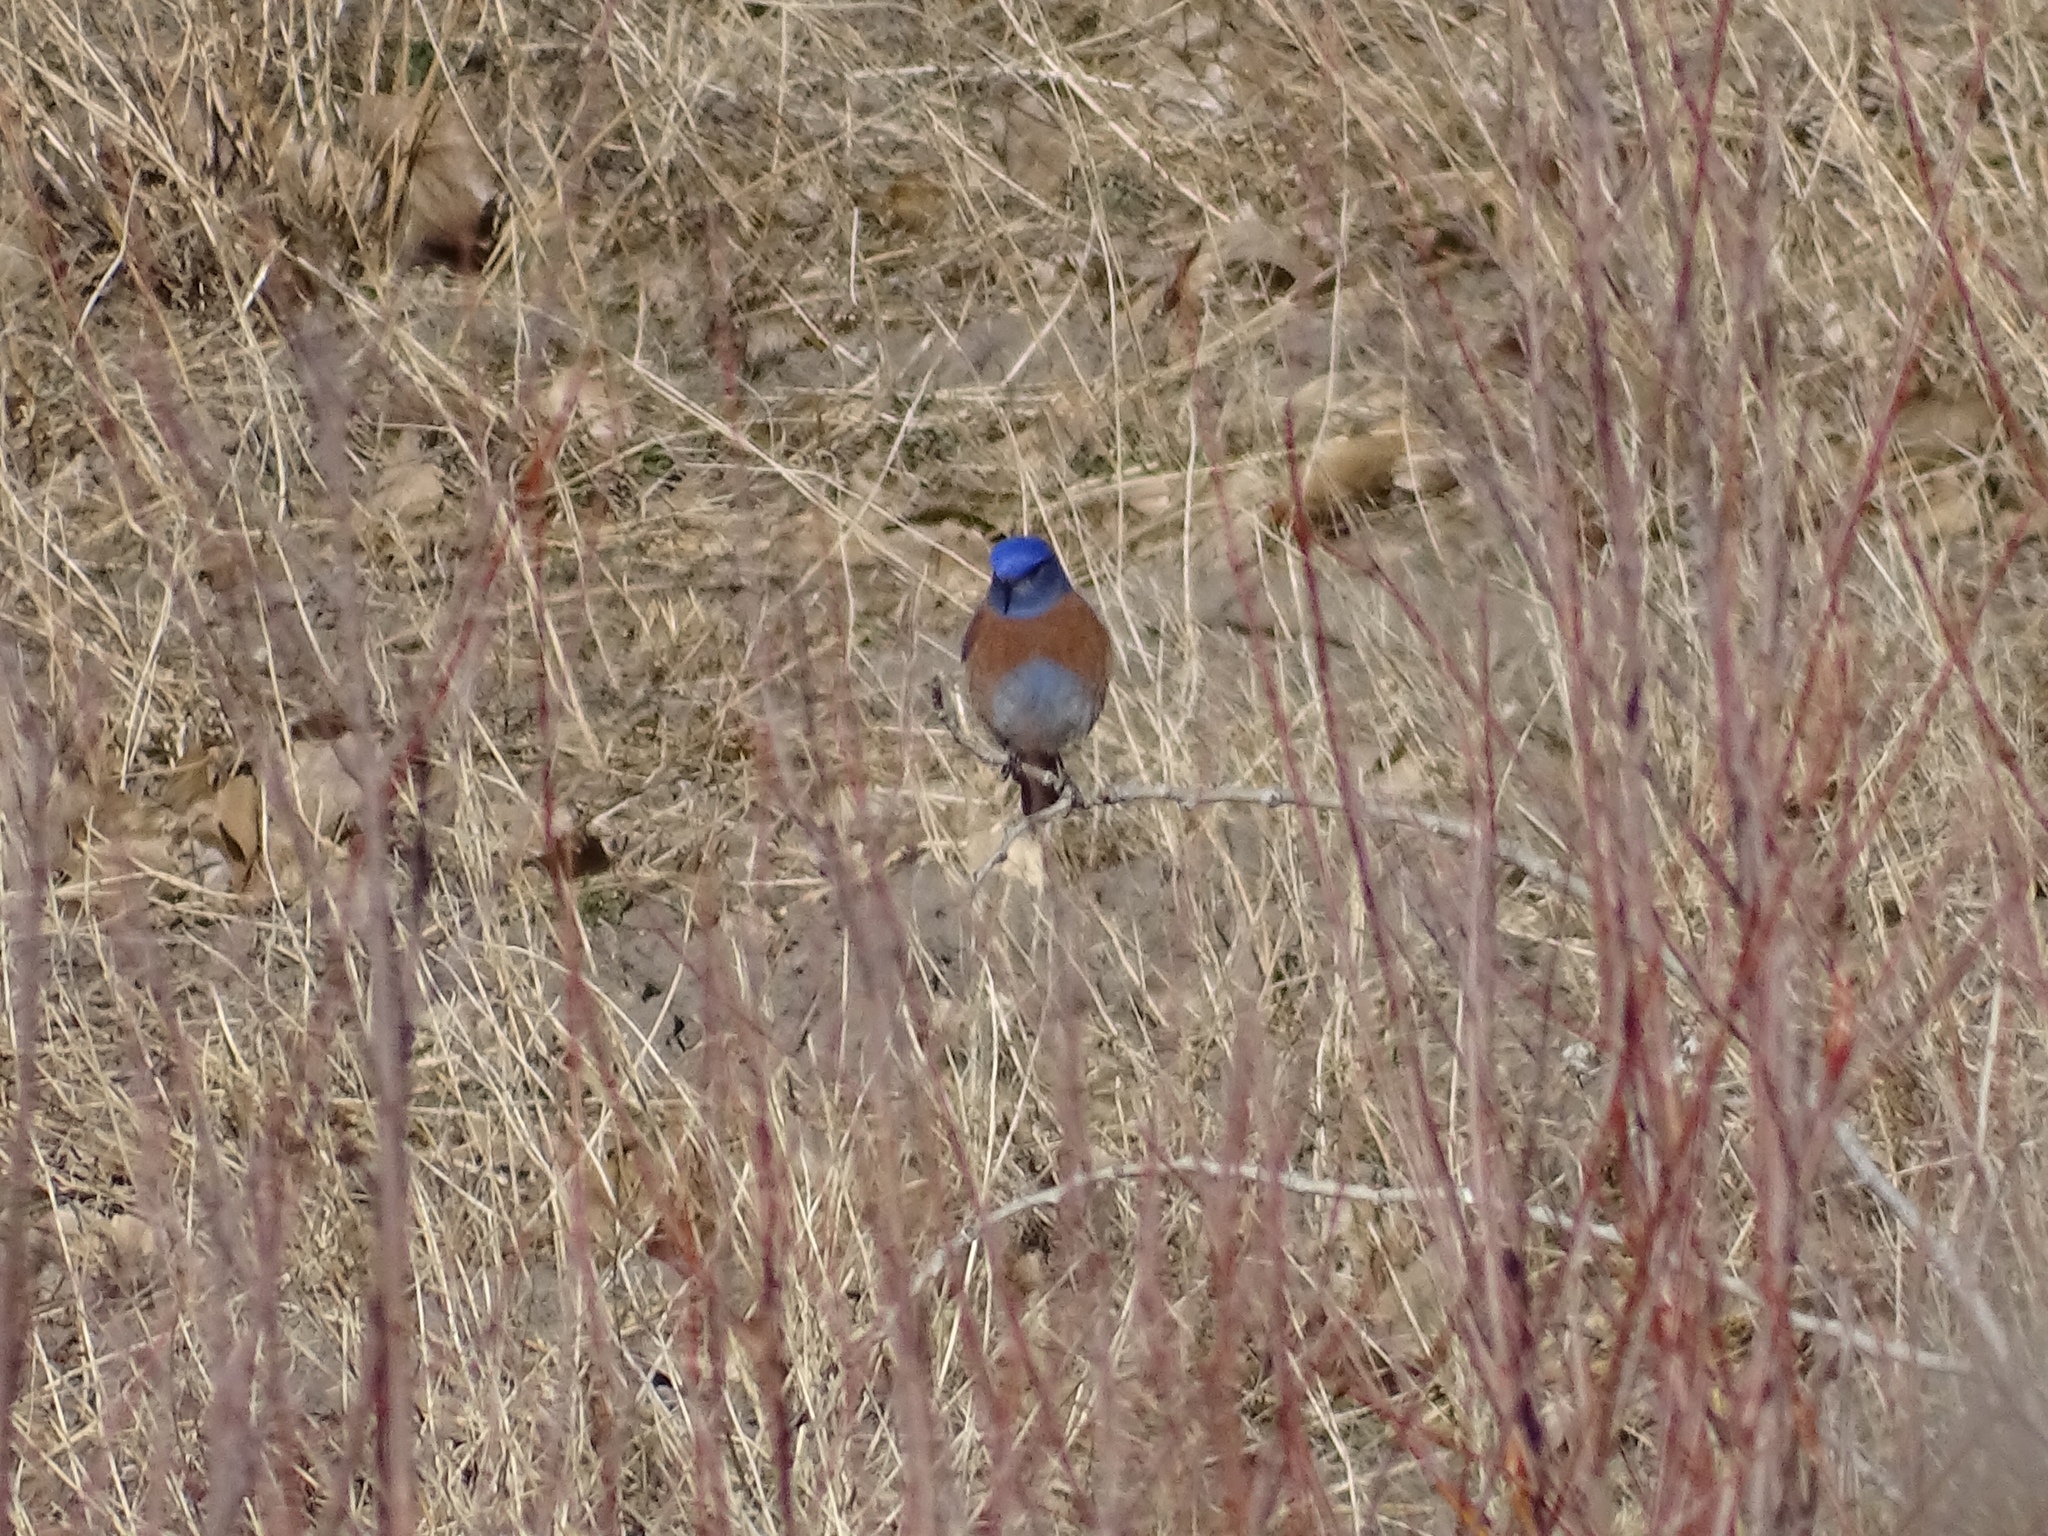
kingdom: Animalia
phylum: Chordata
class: Aves
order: Passeriformes
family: Turdidae
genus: Sialia
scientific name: Sialia mexicana
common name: Western bluebird
